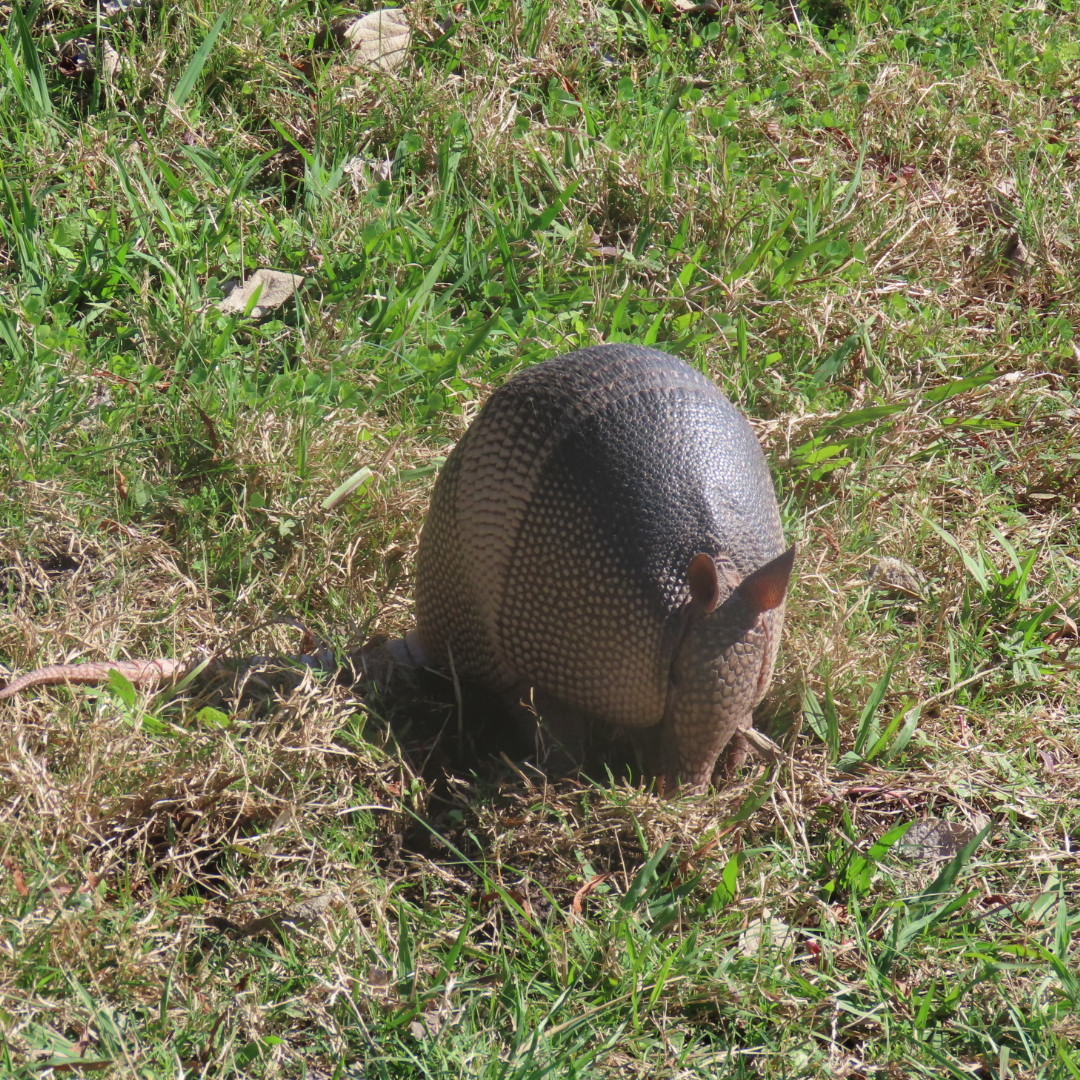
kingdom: Animalia
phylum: Chordata
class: Mammalia
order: Cingulata
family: Dasypodidae
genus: Dasypus
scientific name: Dasypus novemcinctus
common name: Nine-banded armadillo
